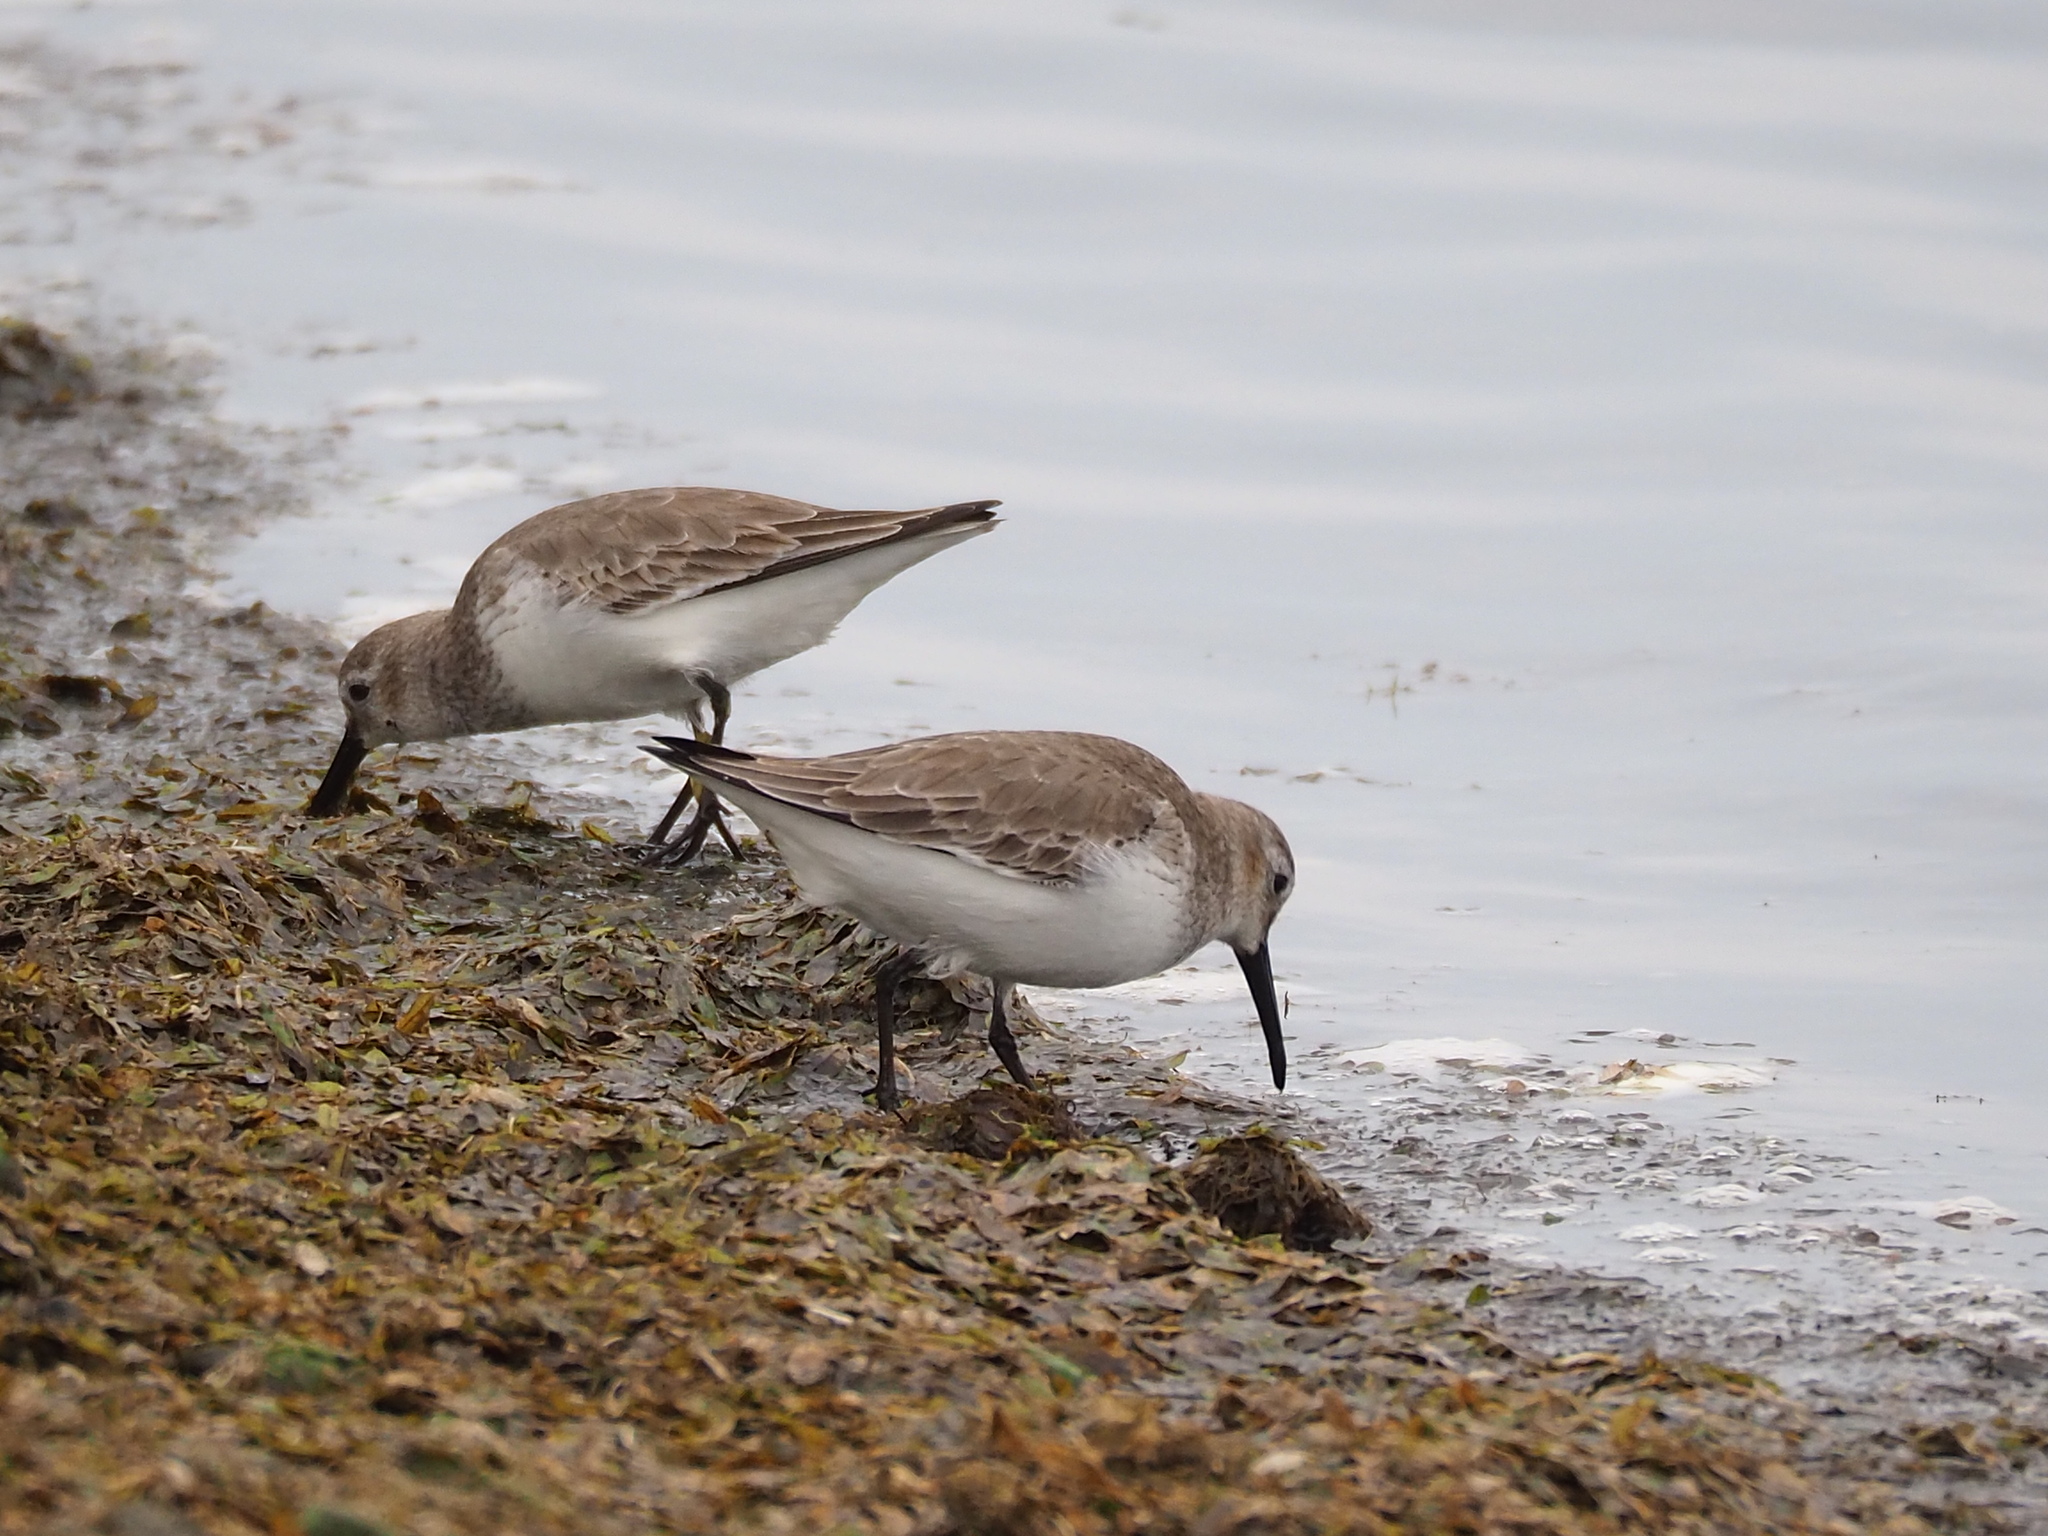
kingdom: Animalia
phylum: Chordata
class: Aves
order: Charadriiformes
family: Scolopacidae
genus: Calidris
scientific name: Calidris alpina
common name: Dunlin
